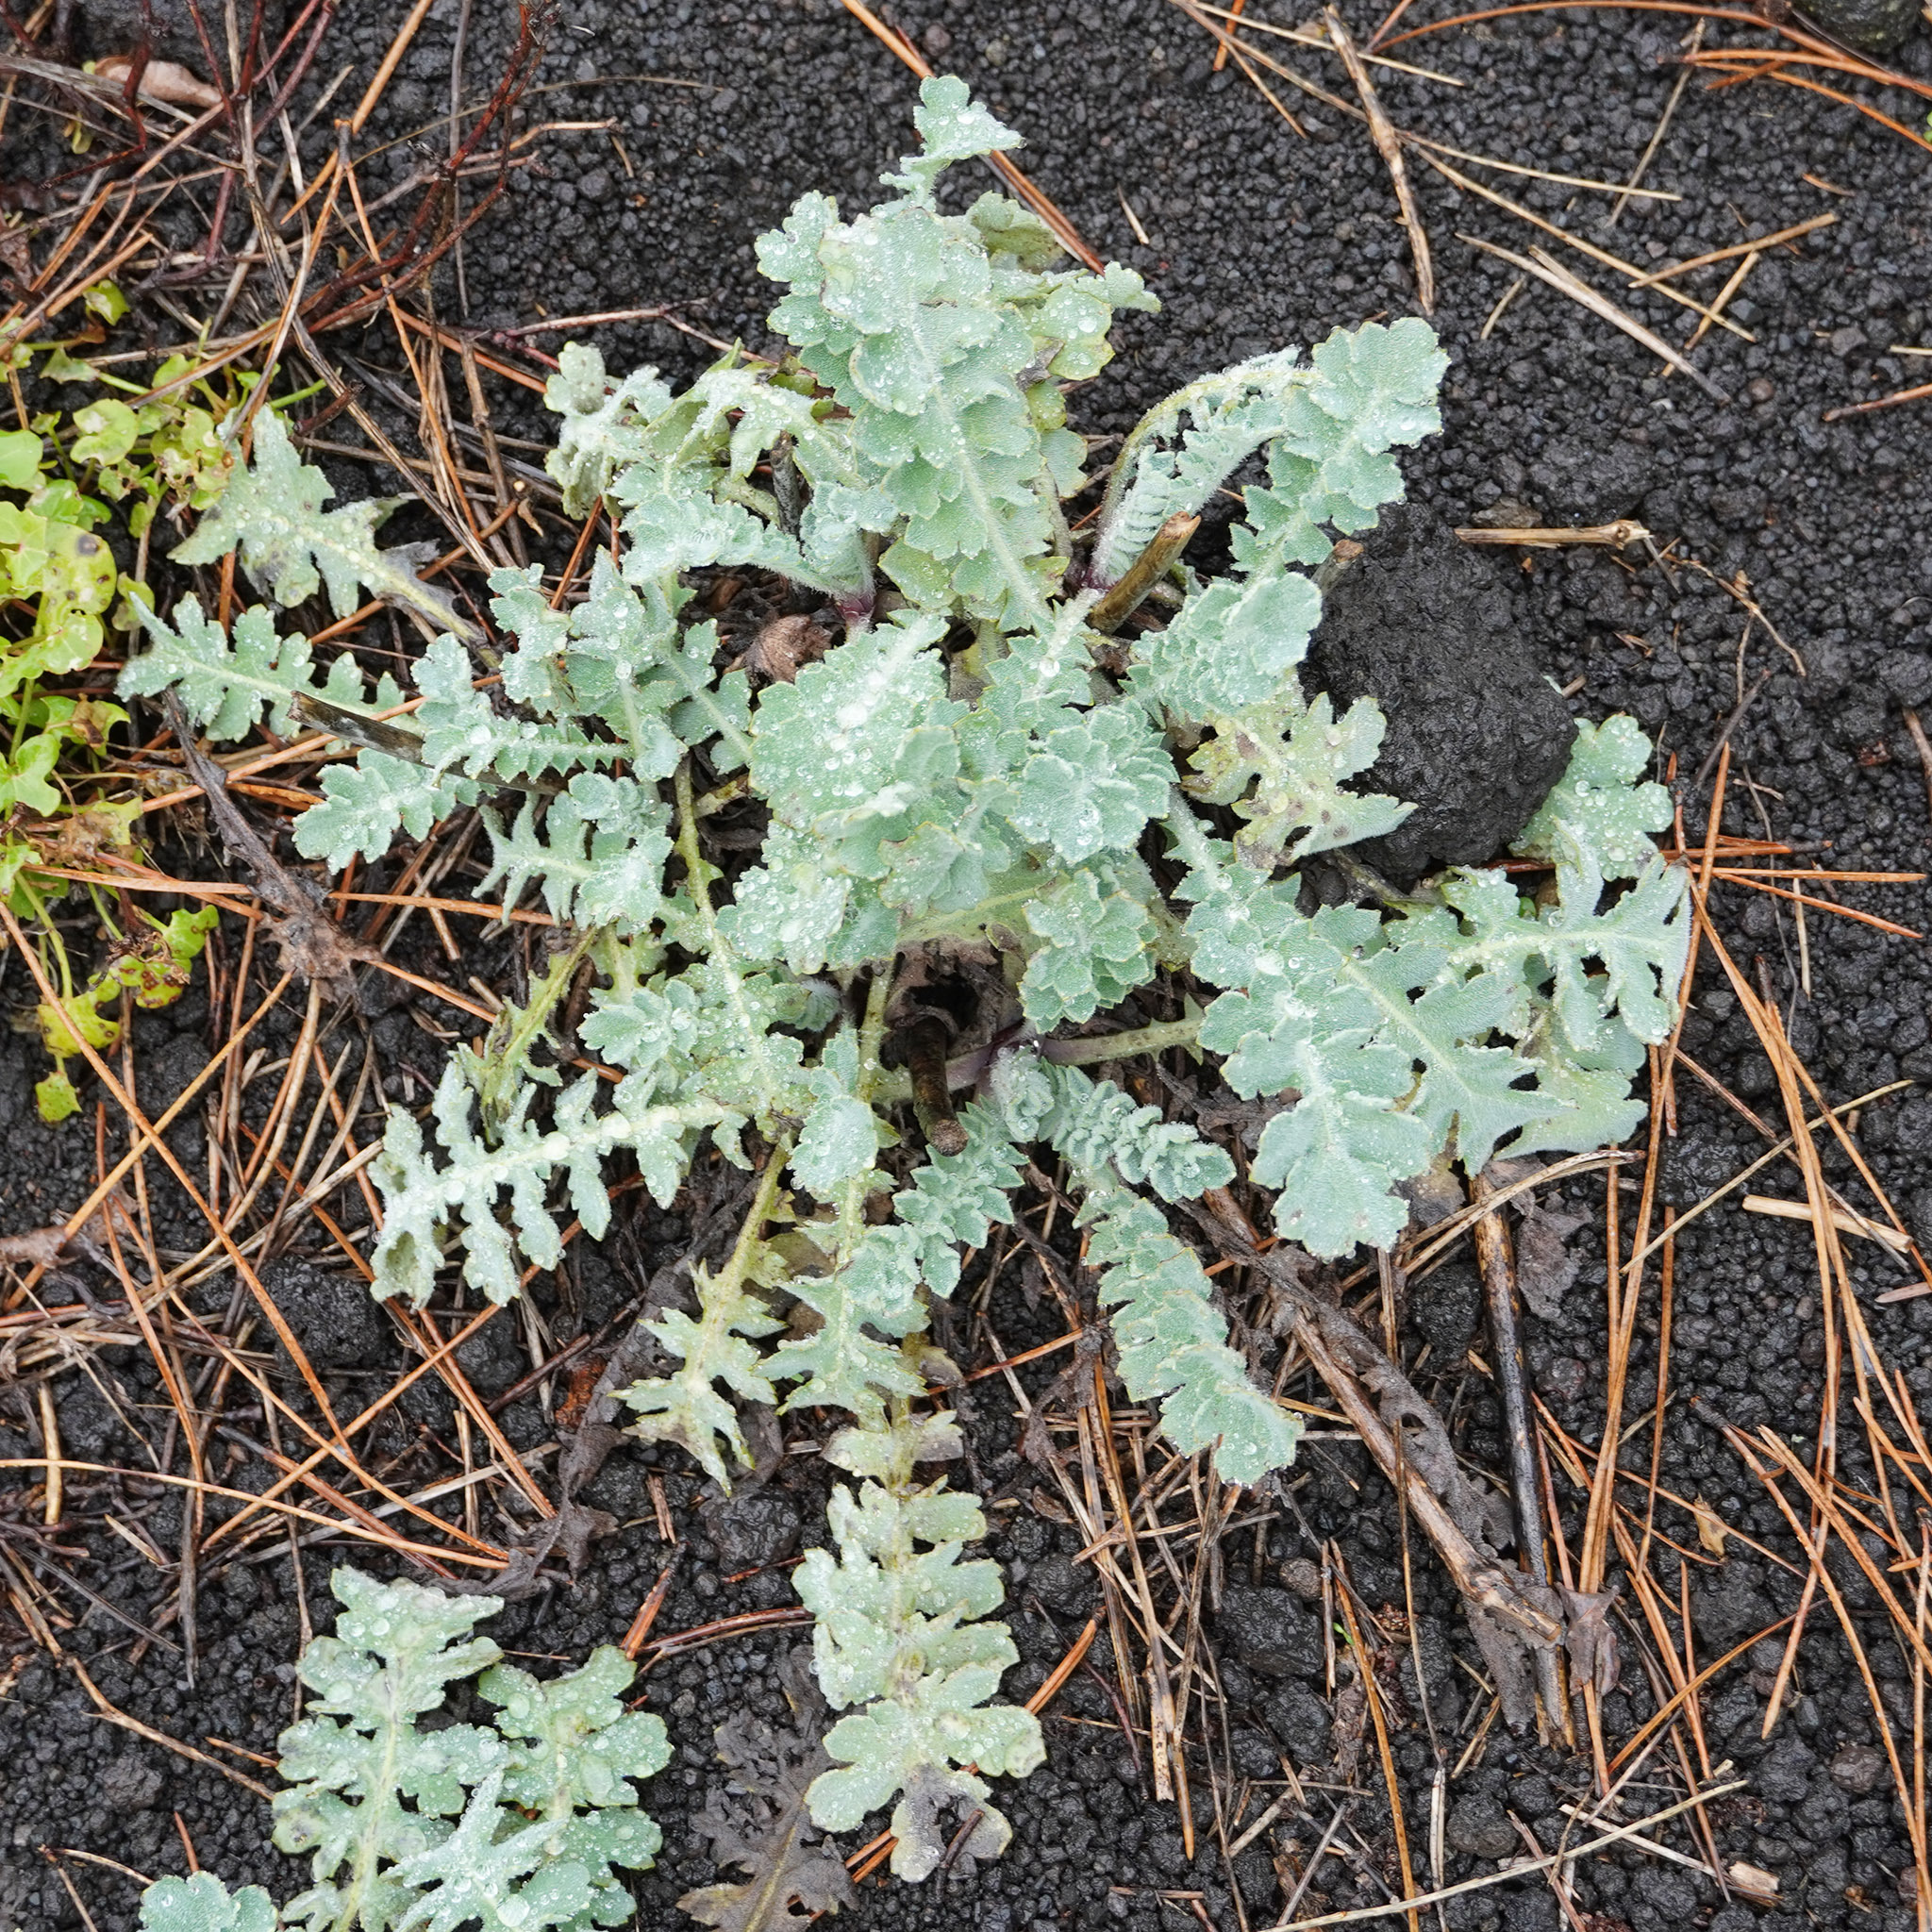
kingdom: Plantae
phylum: Tracheophyta
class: Magnoliopsida
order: Ranunculales
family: Papaveraceae
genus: Glaucium
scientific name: Glaucium flavum
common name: Yellow horned-poppy
